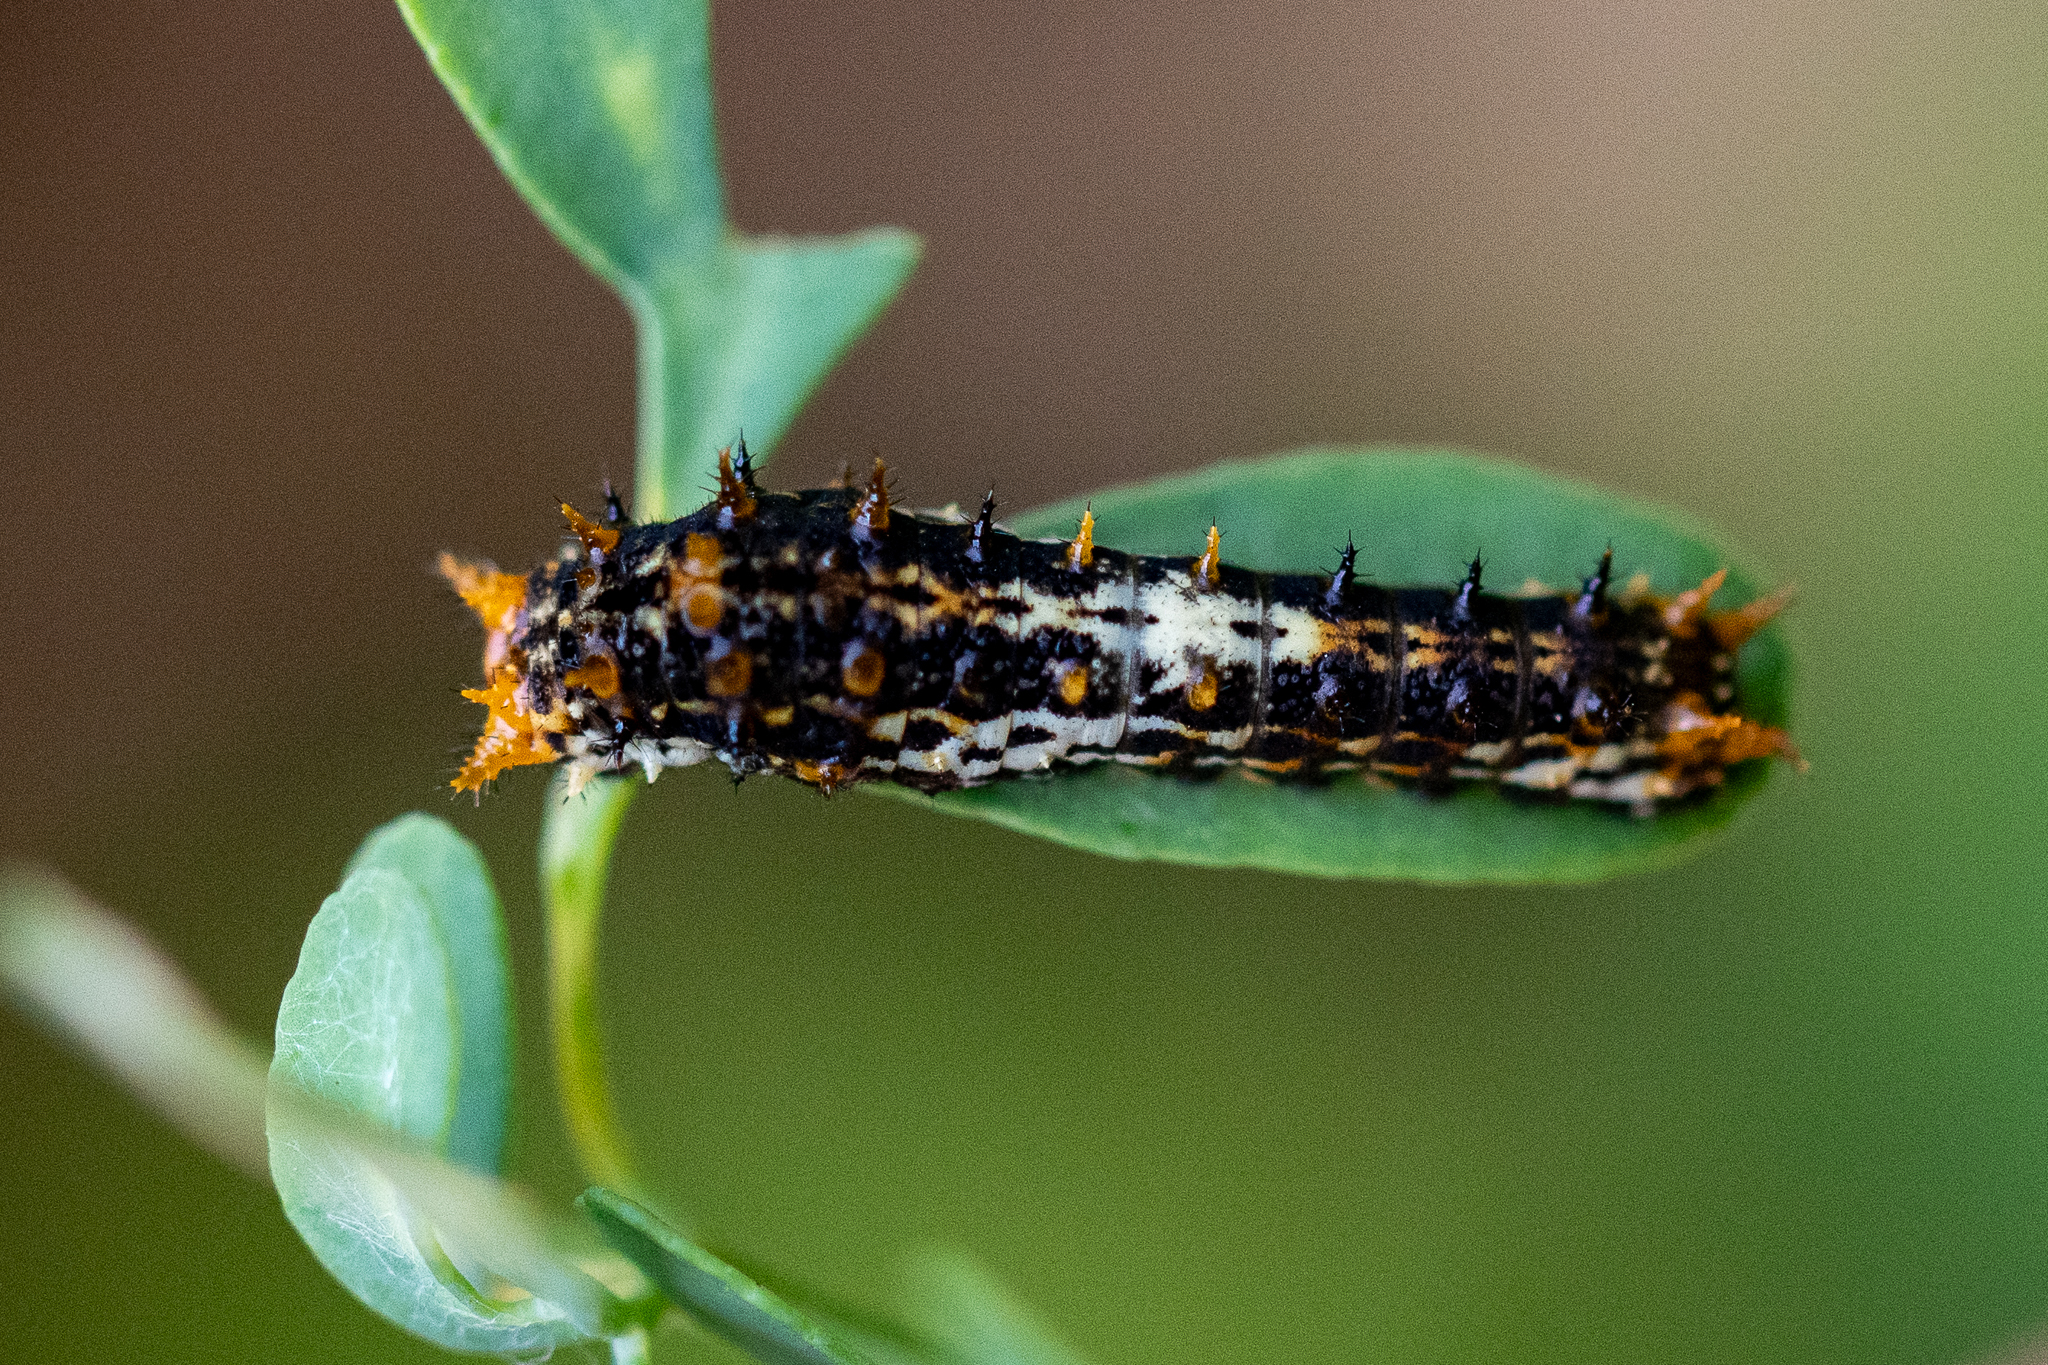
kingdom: Animalia
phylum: Arthropoda
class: Insecta
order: Lepidoptera
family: Papilionidae
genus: Papilio
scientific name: Papilio demodocus
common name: Christmas butterfly
